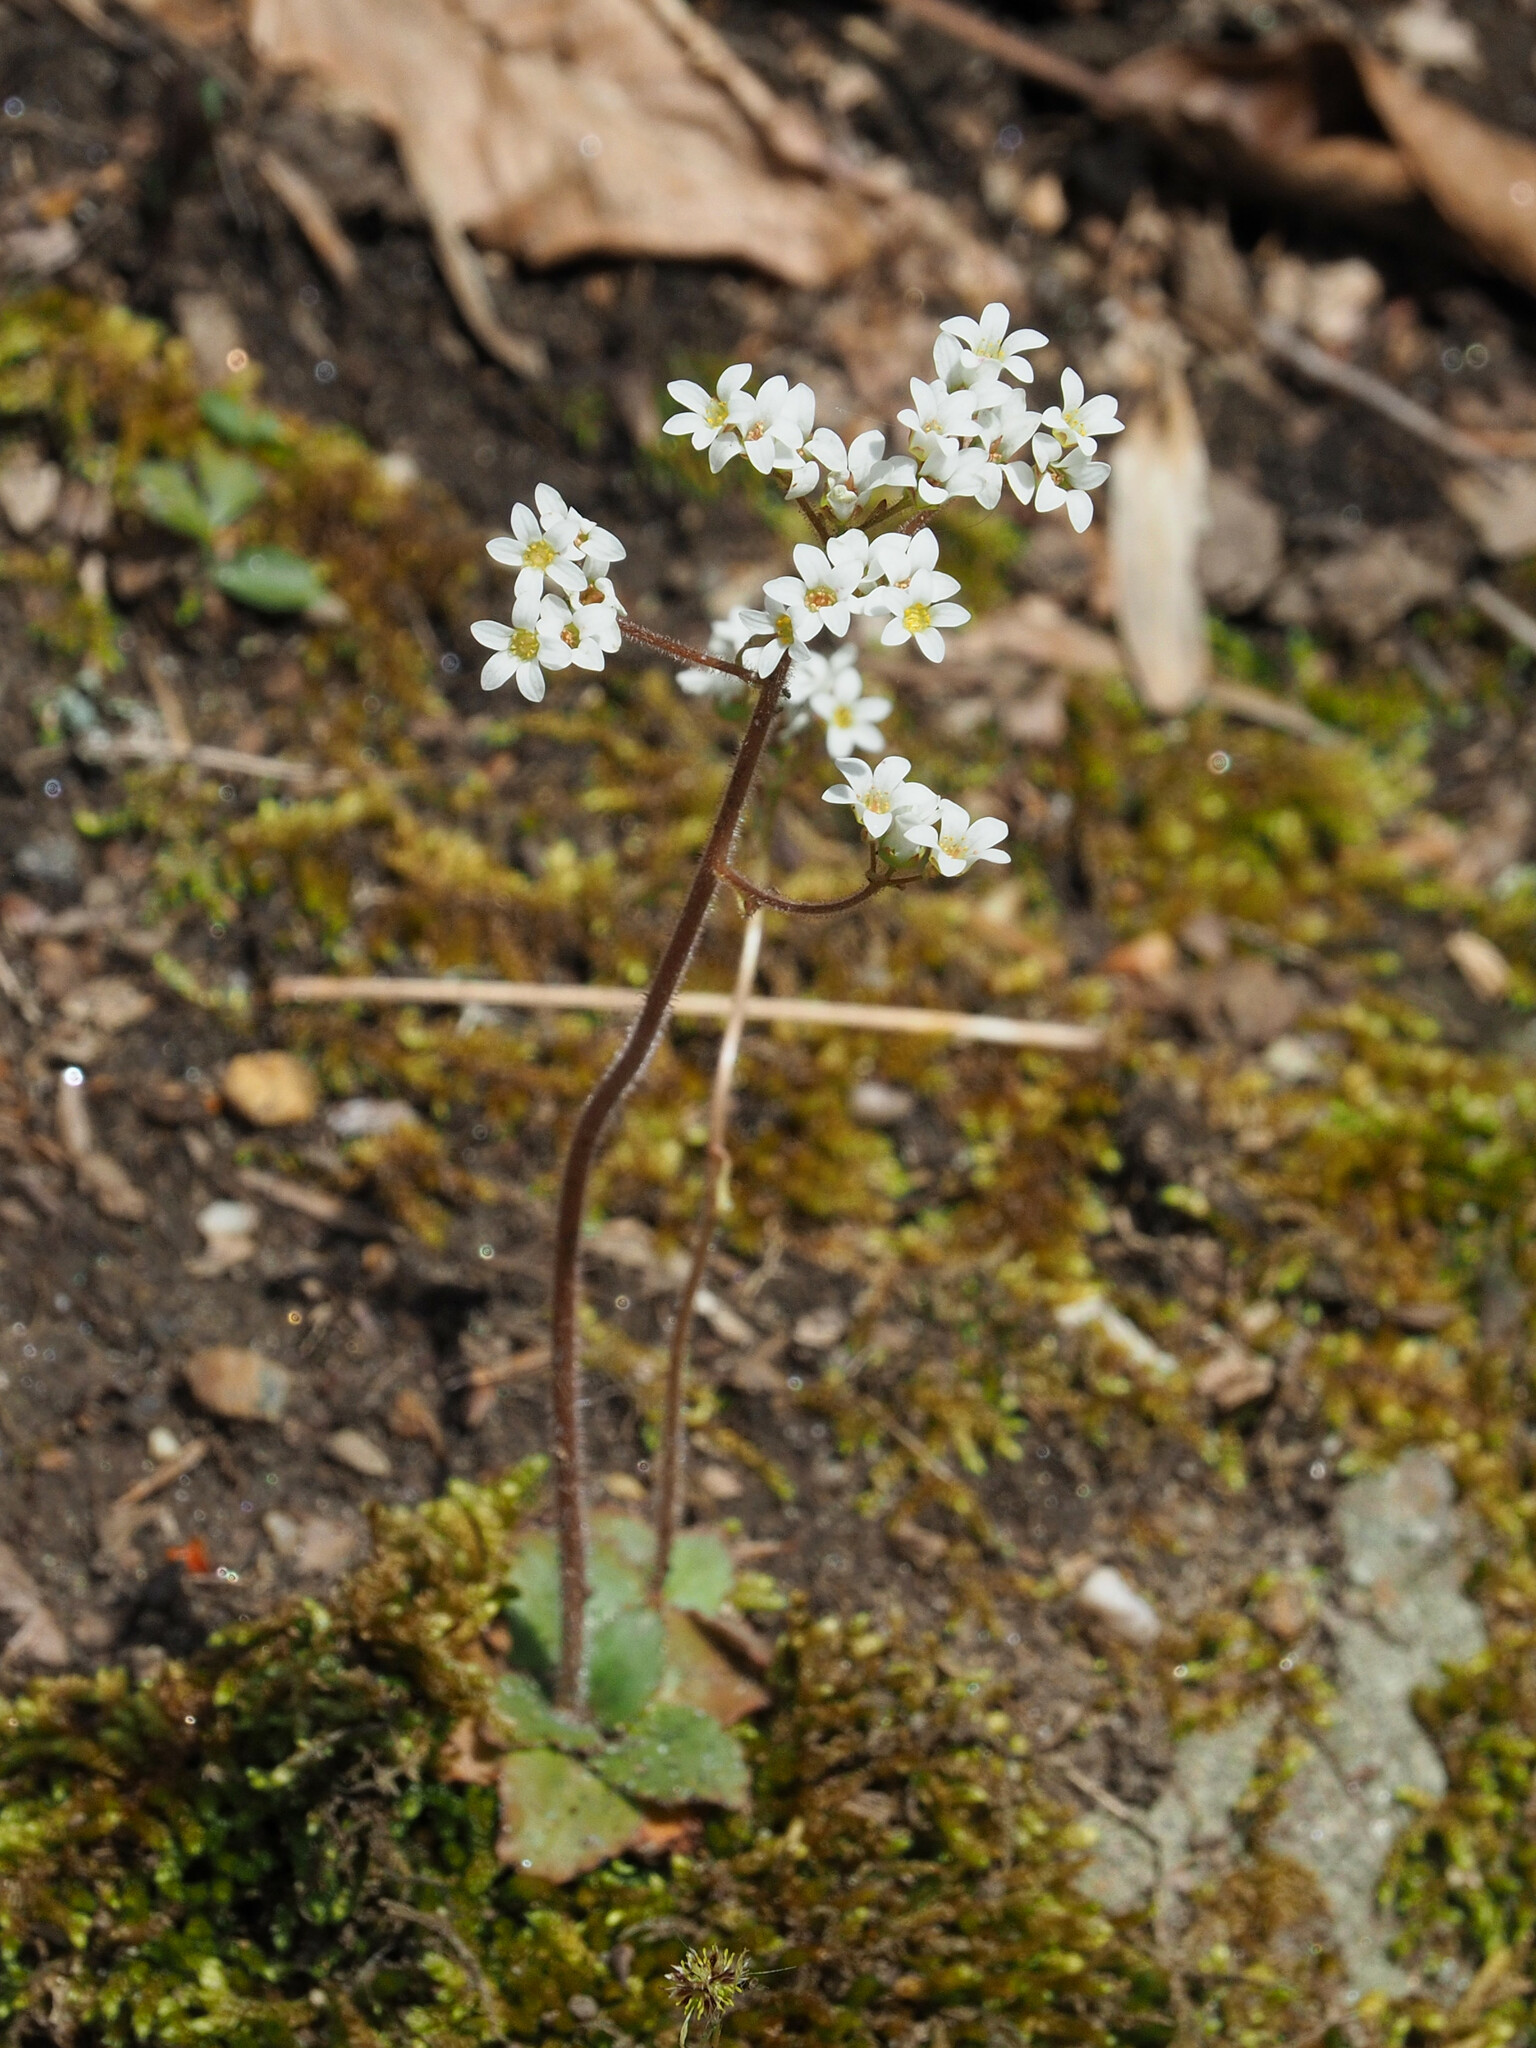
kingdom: Plantae
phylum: Tracheophyta
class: Magnoliopsida
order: Saxifragales
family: Saxifragaceae
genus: Micranthes
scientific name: Micranthes virginiensis
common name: Early saxifrage
